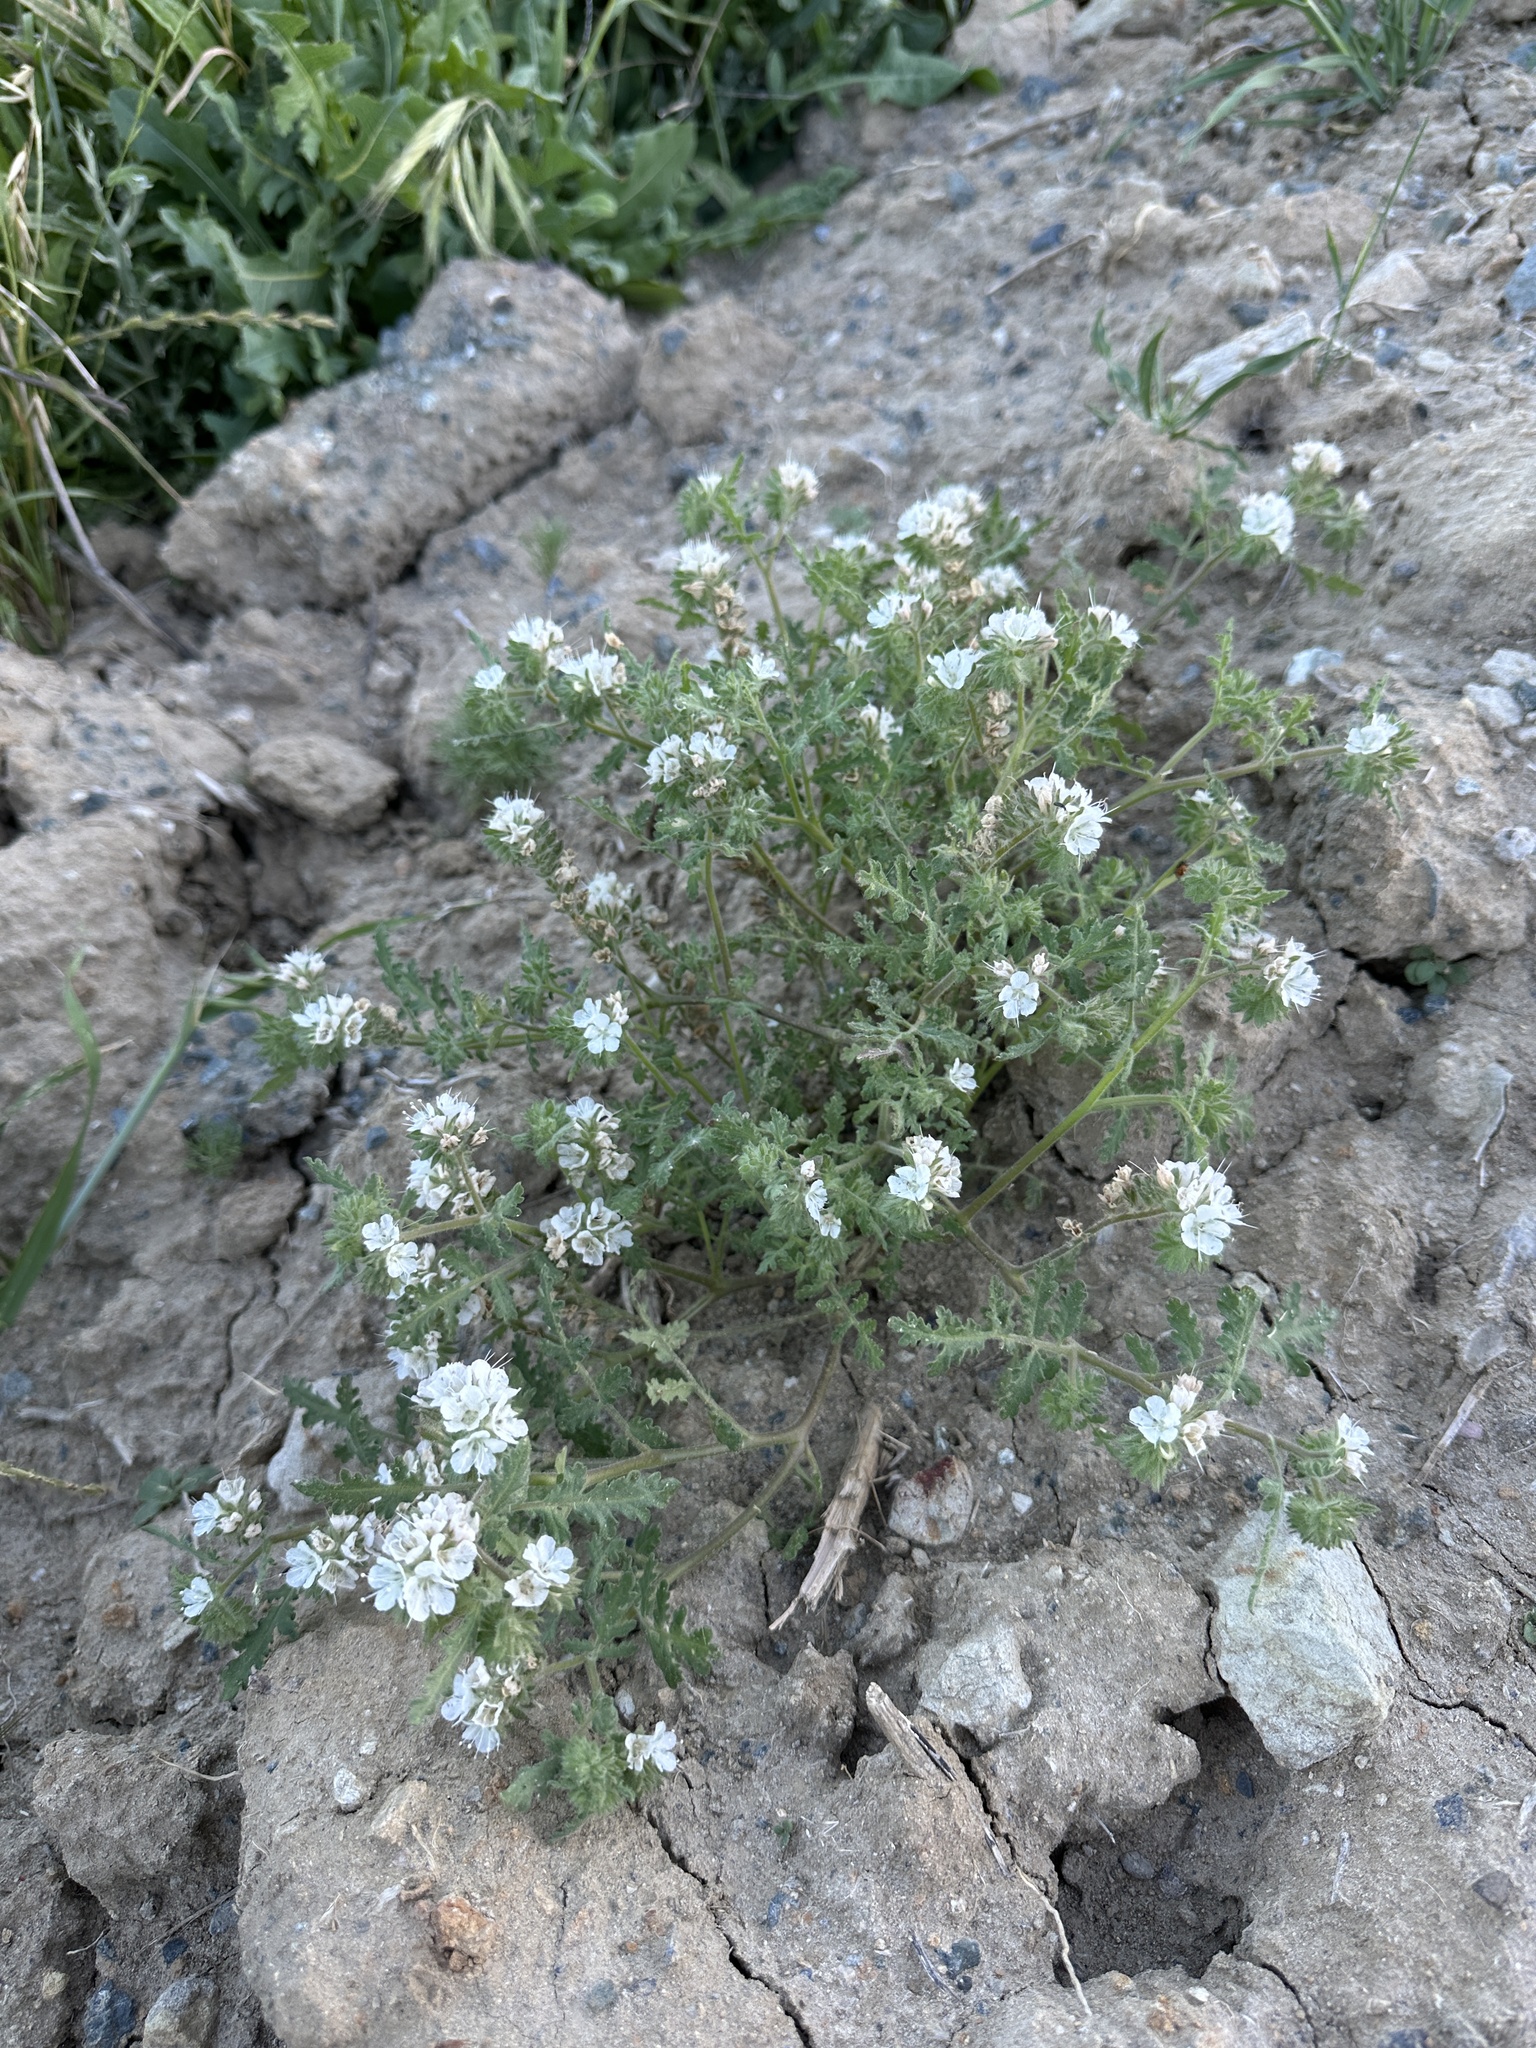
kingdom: Plantae
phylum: Tracheophyta
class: Magnoliopsida
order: Boraginales
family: Hydrophyllaceae
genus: Phacelia
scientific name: Phacelia distans
